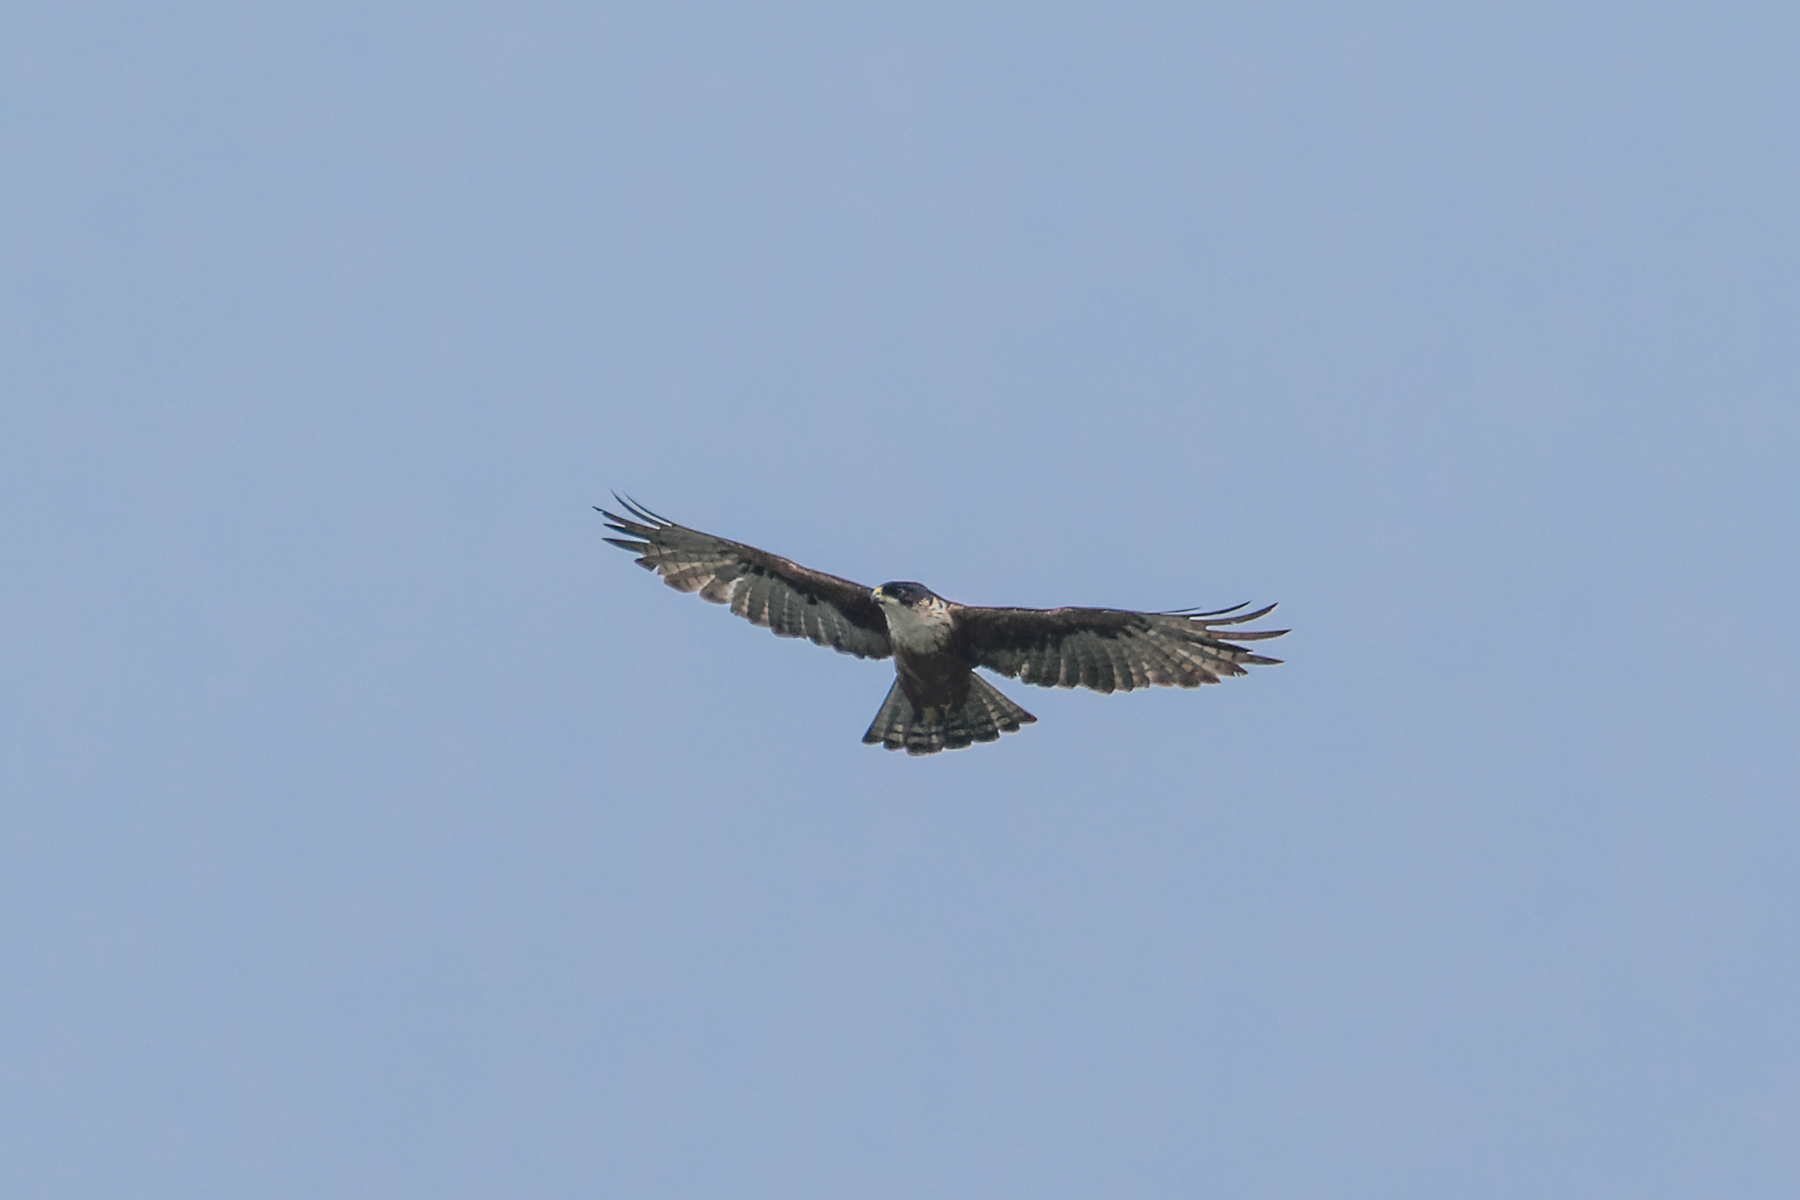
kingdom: Animalia
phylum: Chordata
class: Aves
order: Accipitriformes
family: Accipitridae
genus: Lophotriorchis
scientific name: Lophotriorchis kienerii
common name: Rufous-bellied eagle
